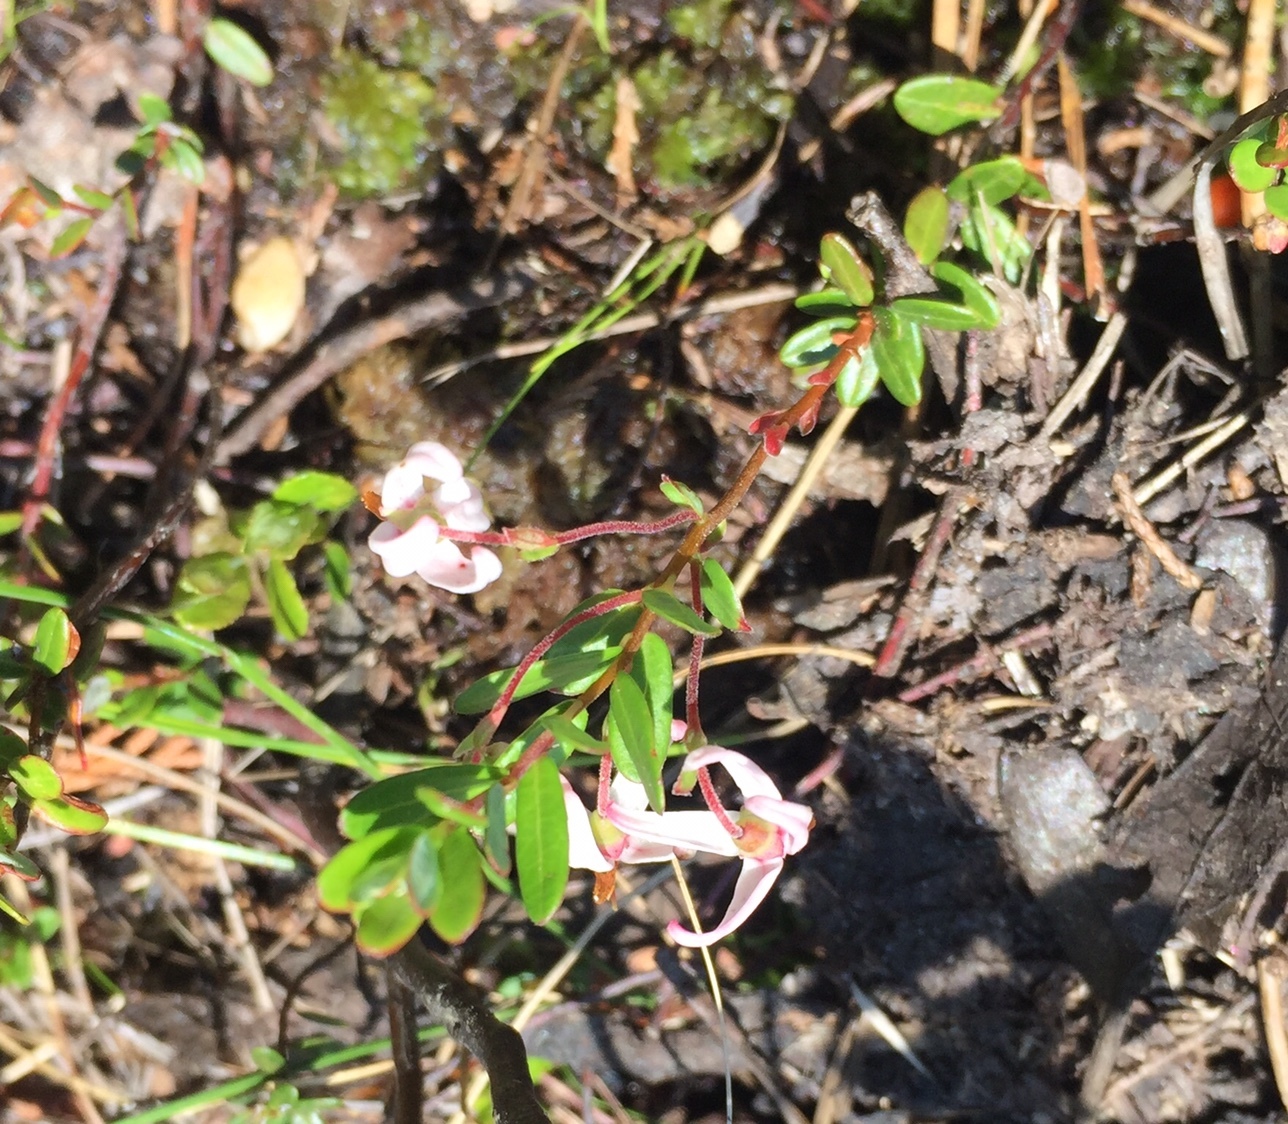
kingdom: Plantae
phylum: Tracheophyta
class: Magnoliopsida
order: Ericales
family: Ericaceae
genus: Vaccinium
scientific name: Vaccinium macrocarpon
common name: American cranberry
